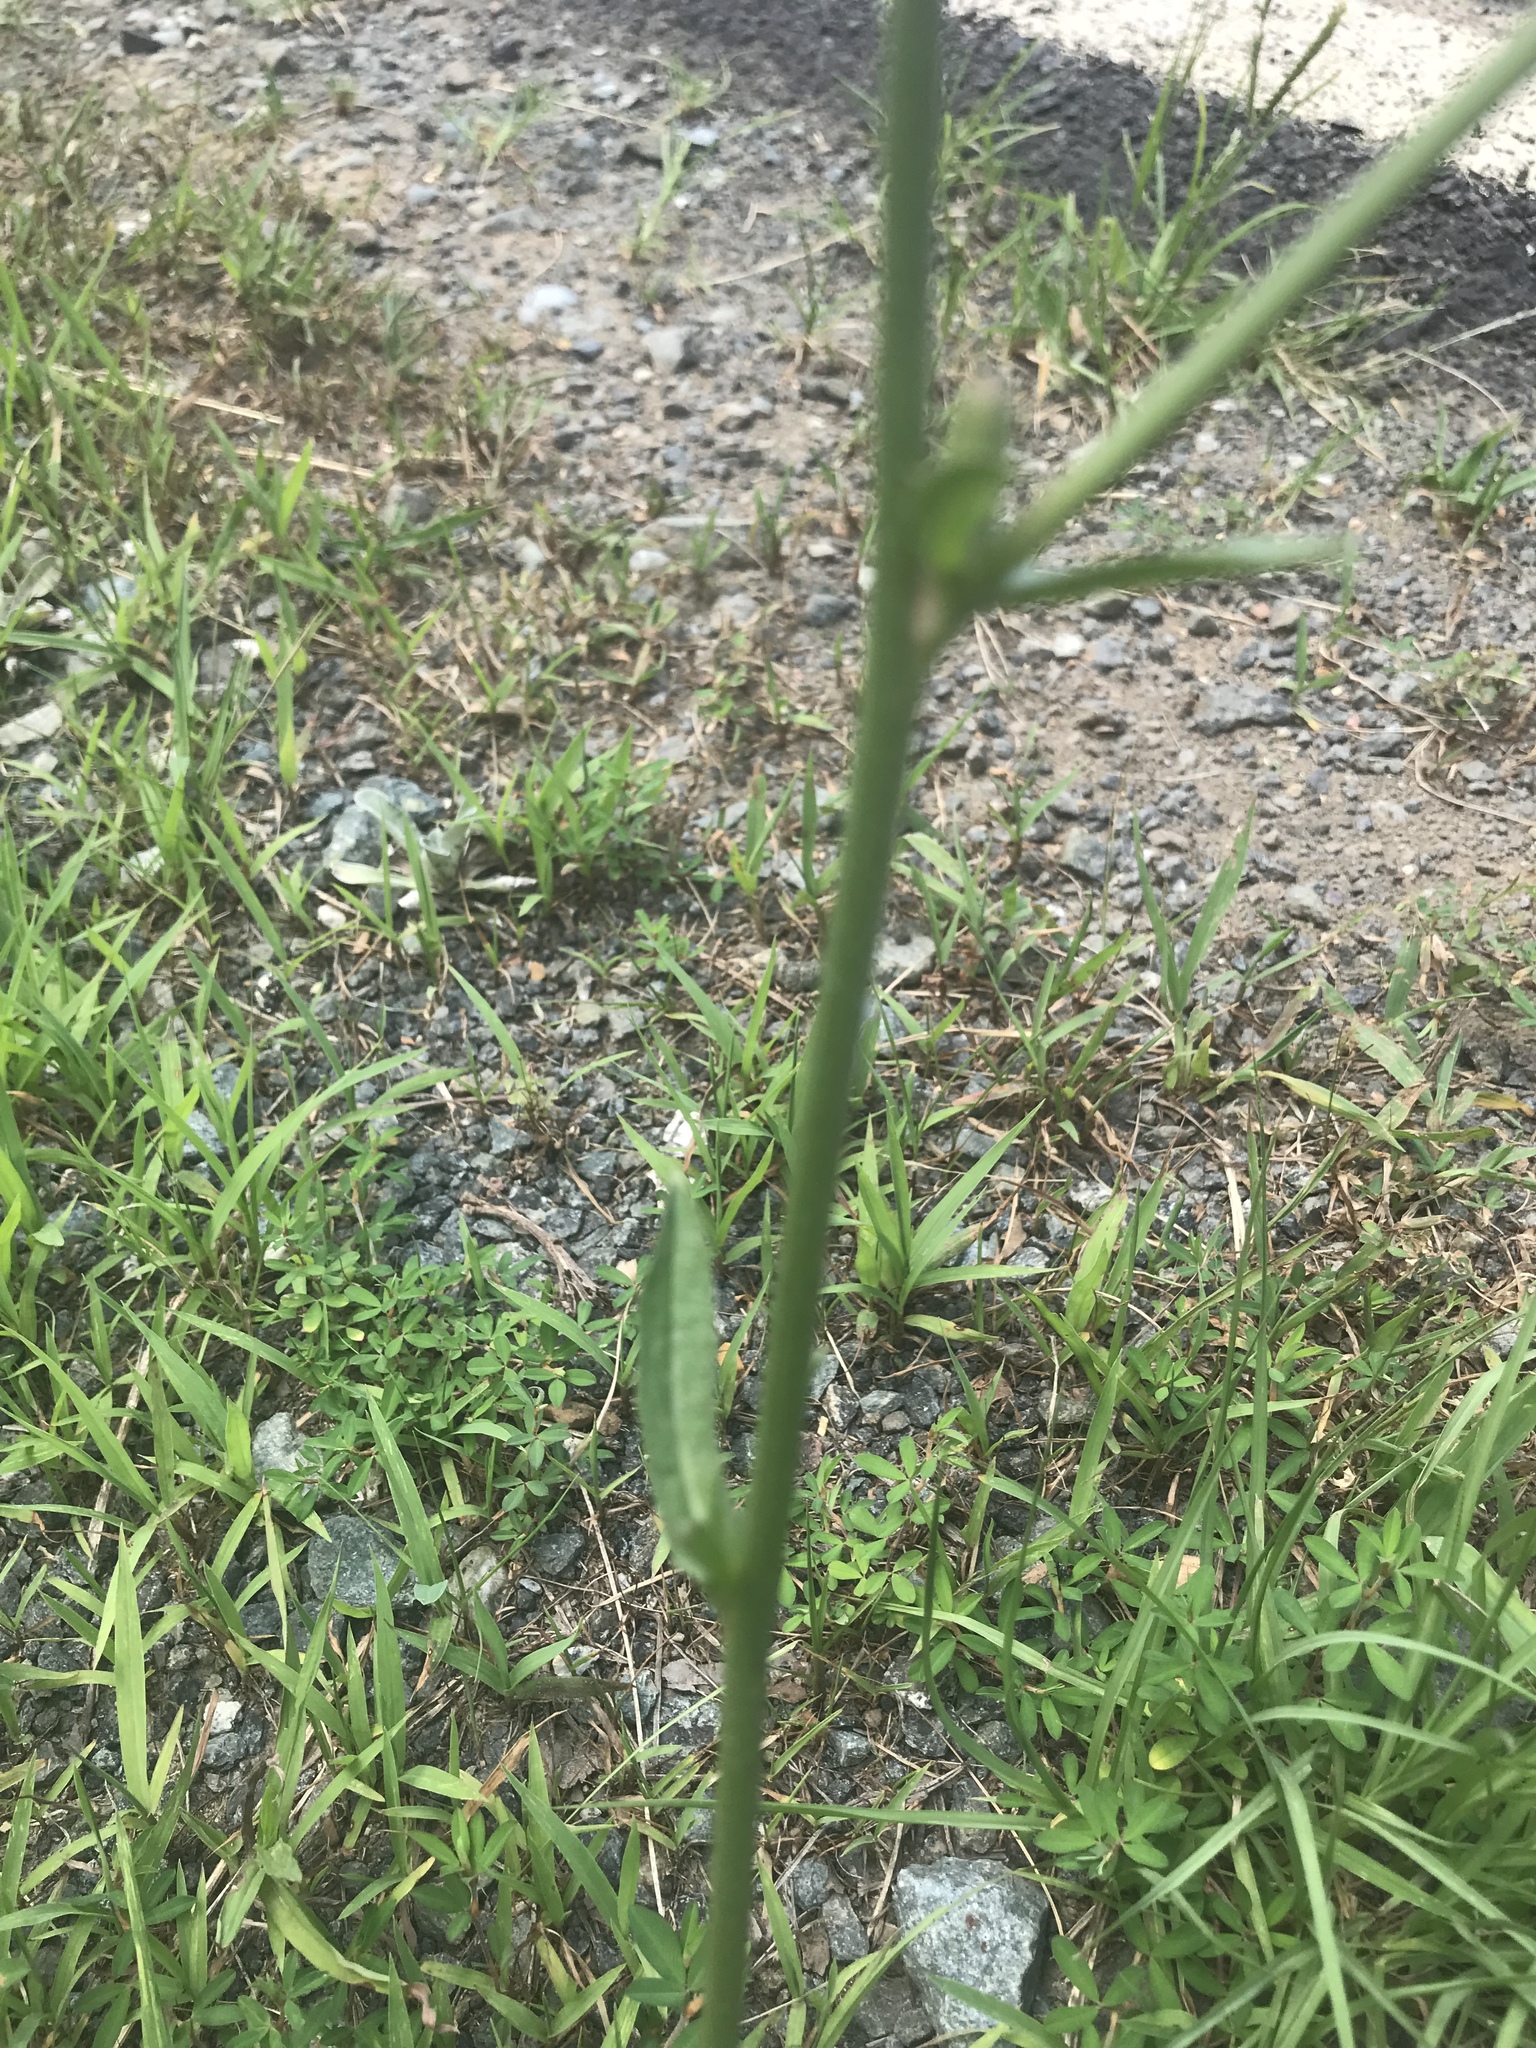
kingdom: Plantae
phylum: Tracheophyta
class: Magnoliopsida
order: Asterales
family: Asteraceae
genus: Cichorium
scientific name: Cichorium intybus
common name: Chicory
